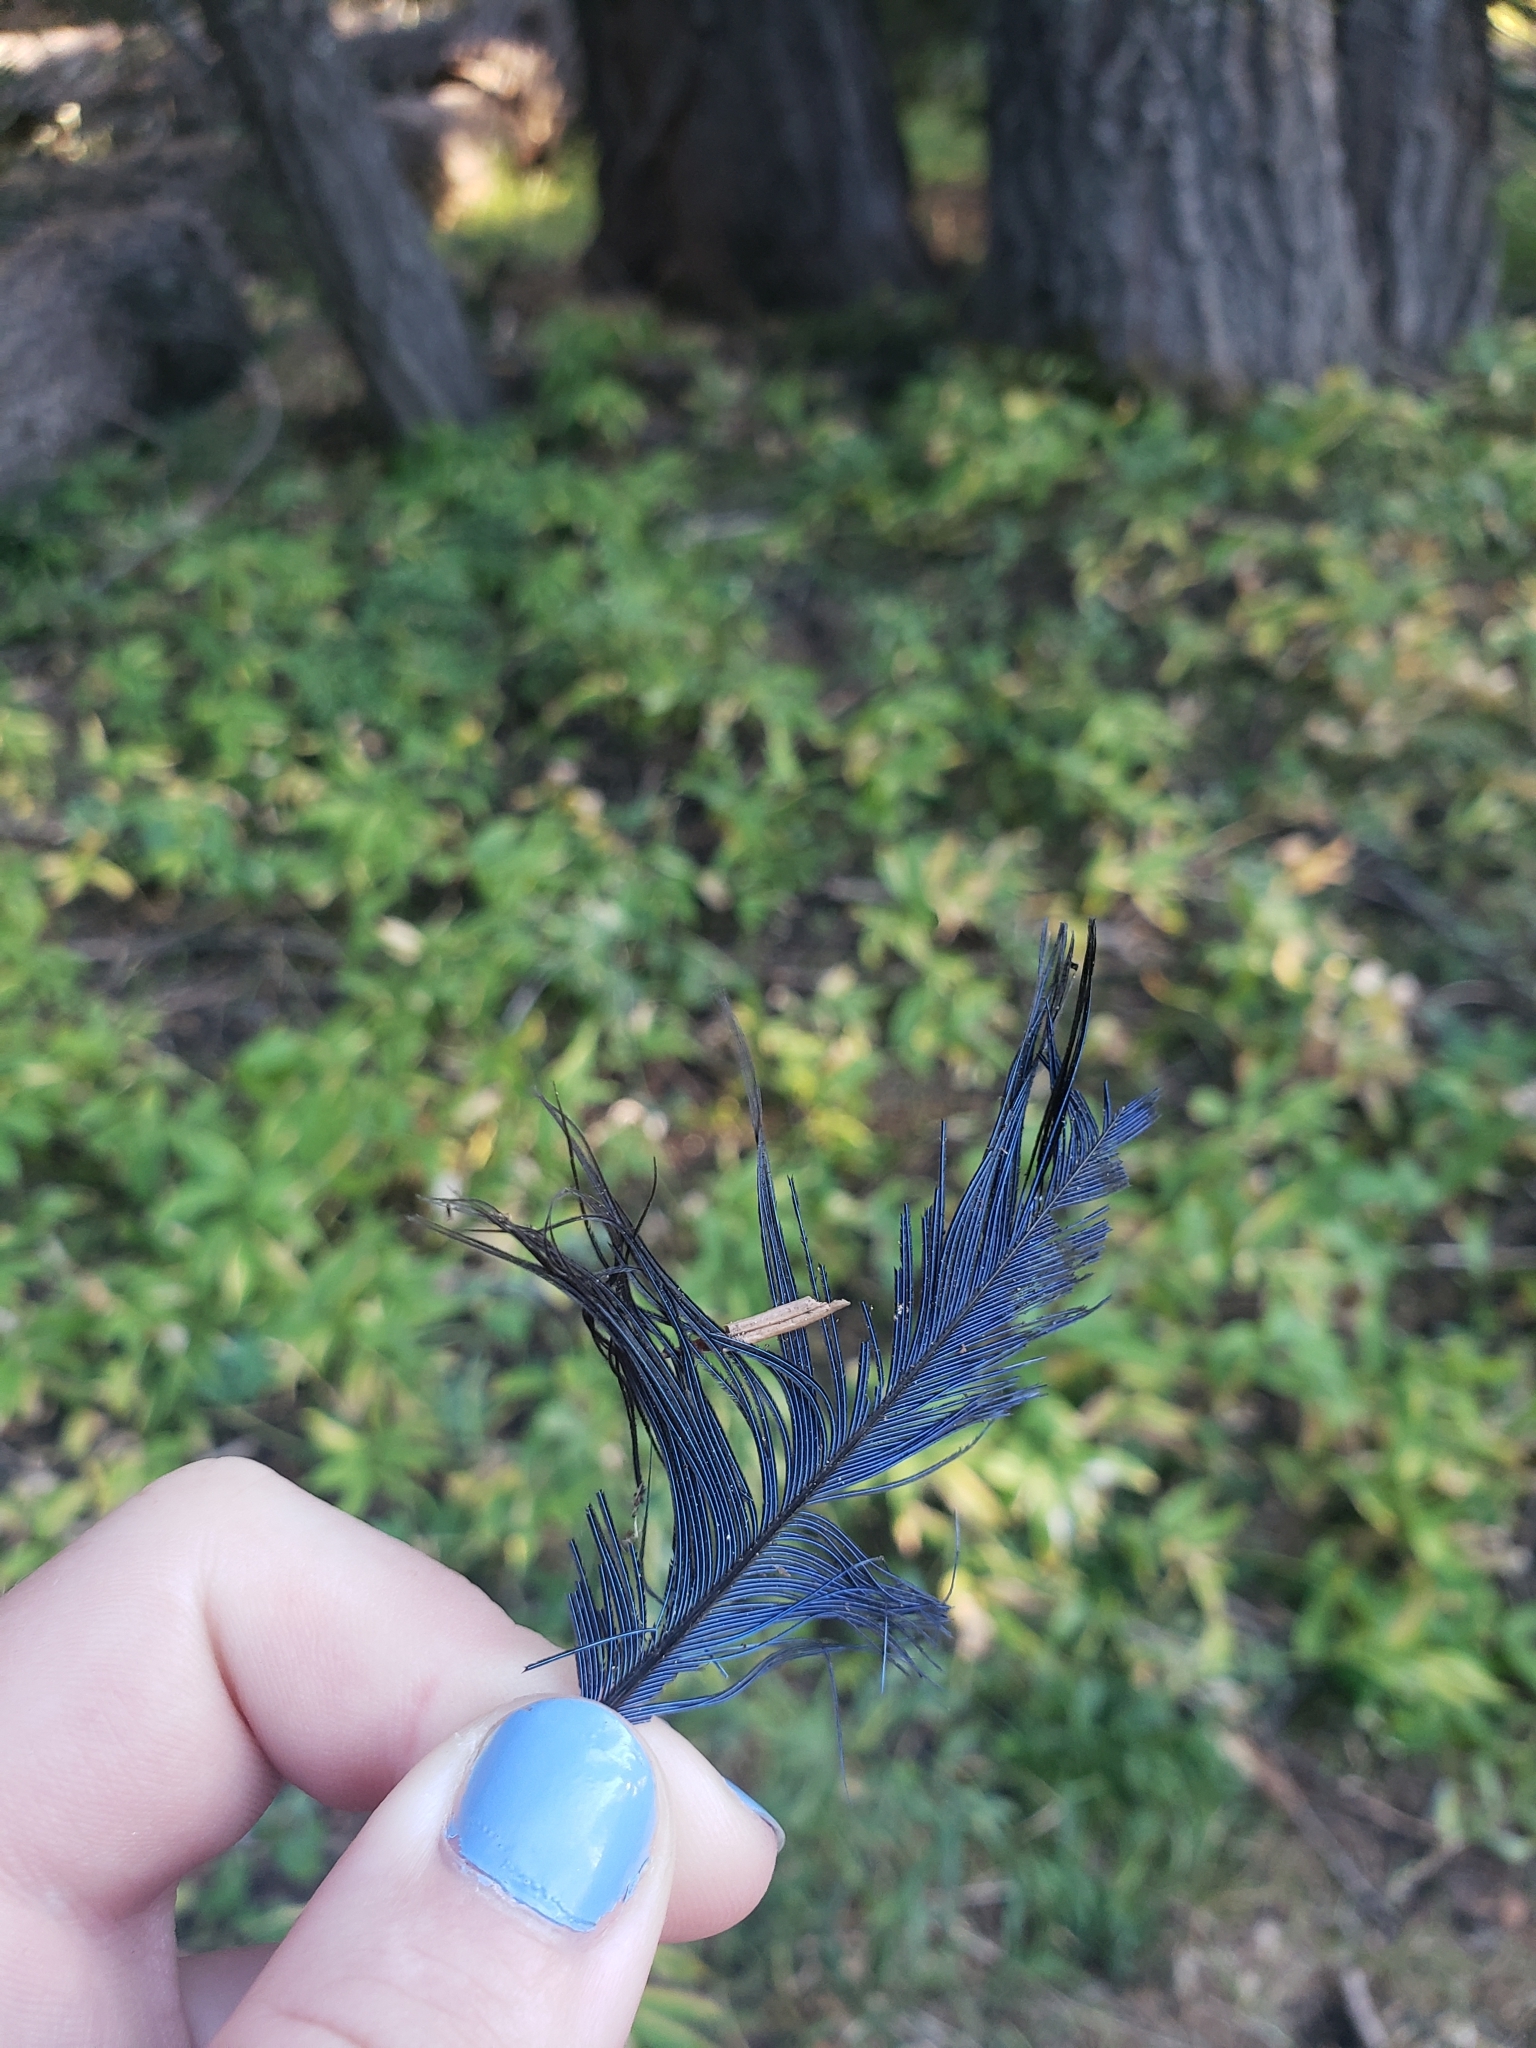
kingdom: Animalia
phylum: Chordata
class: Aves
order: Passeriformes
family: Corvidae
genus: Cyanocitta
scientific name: Cyanocitta stelleri
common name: Steller's jay
